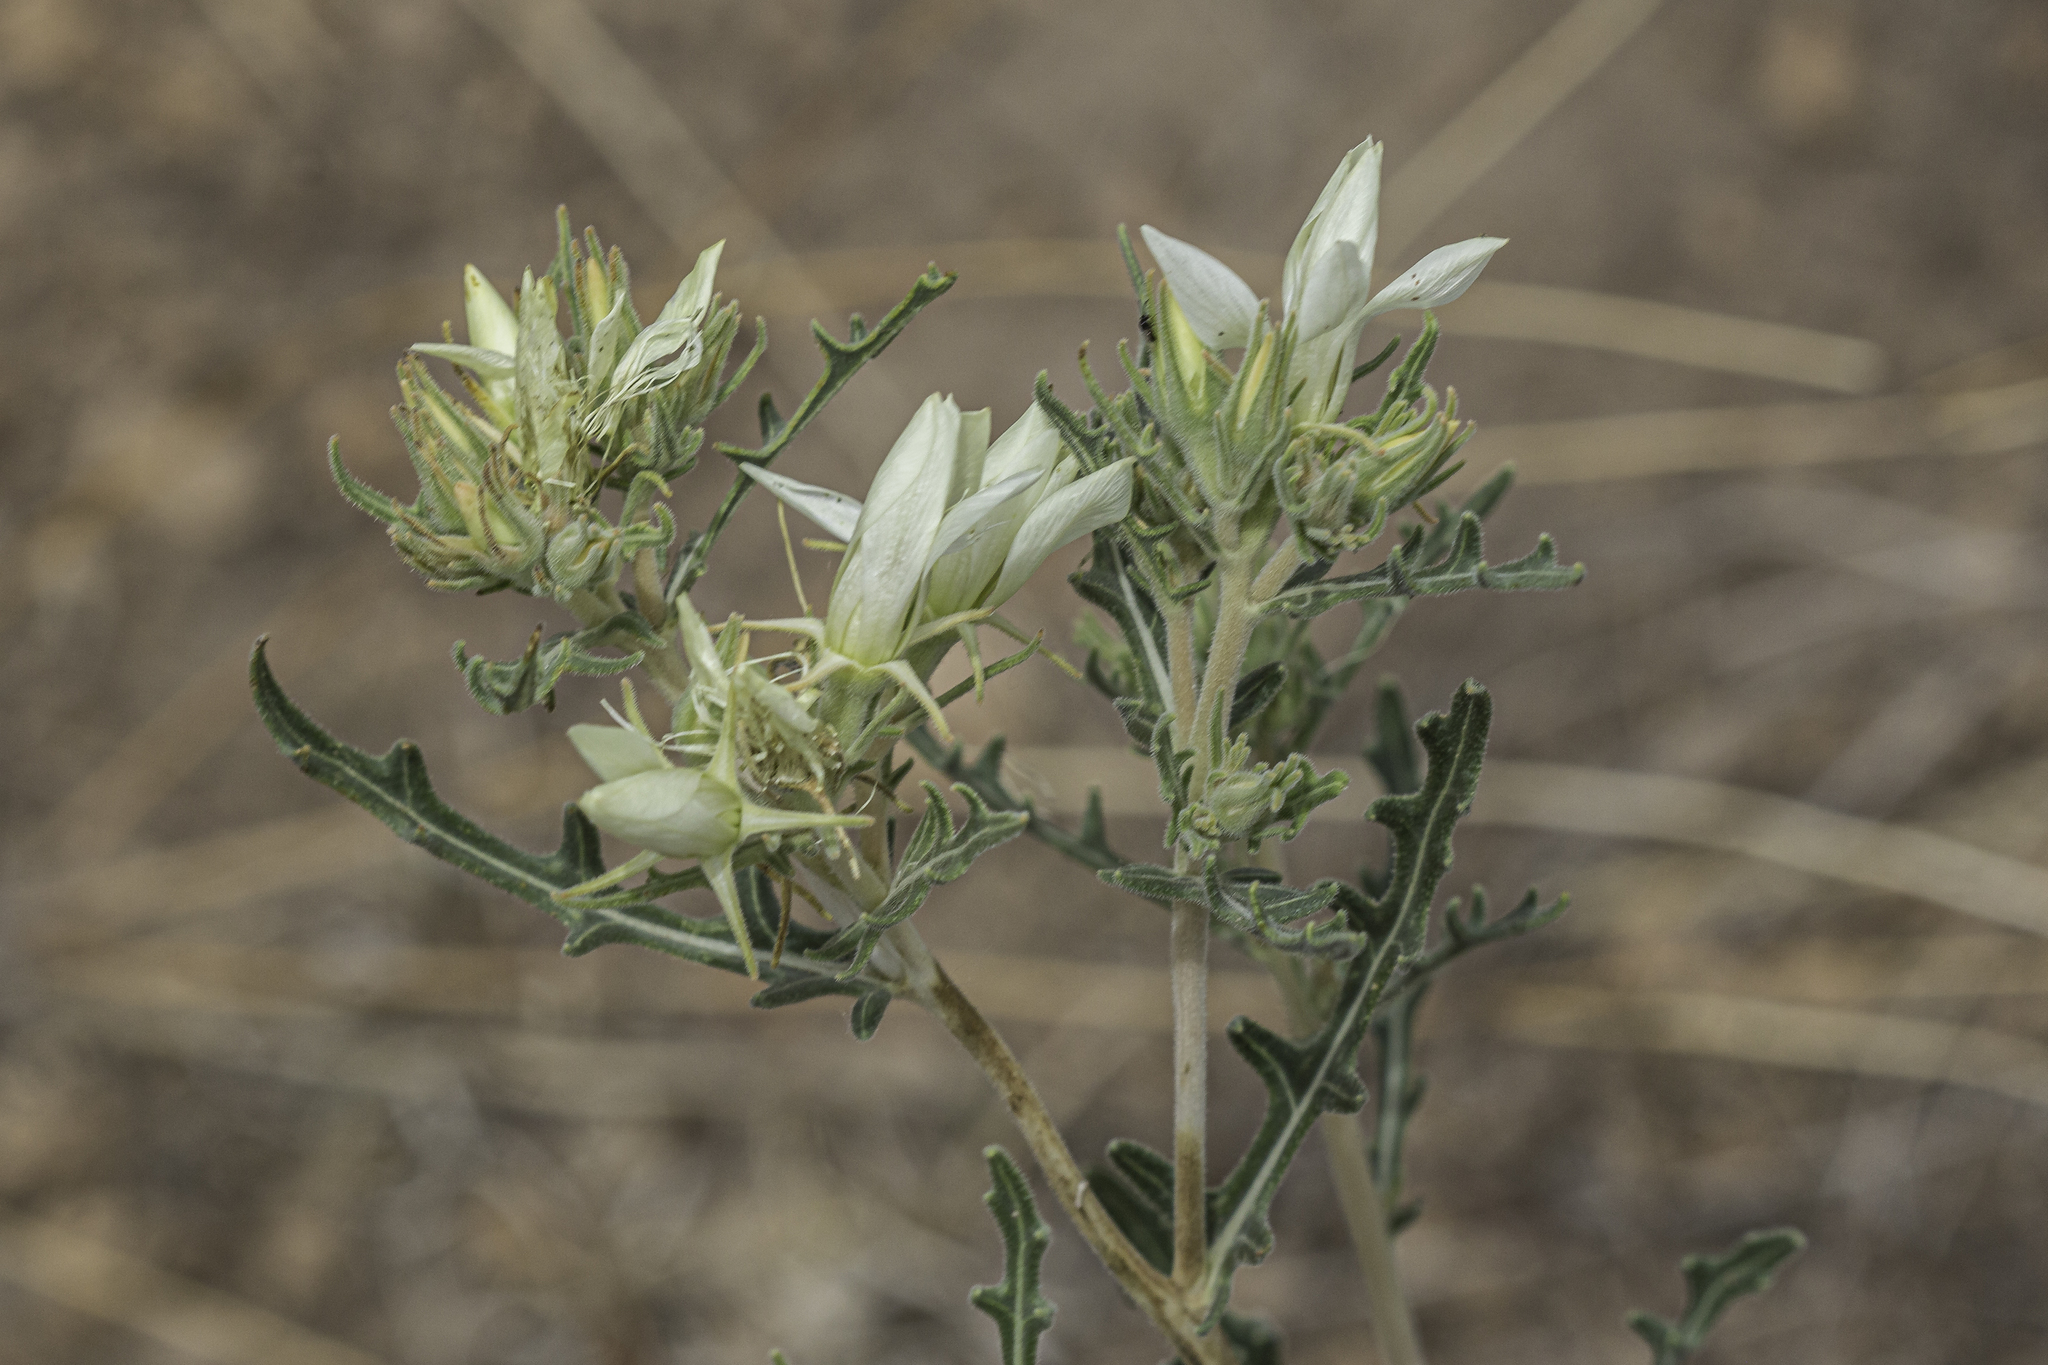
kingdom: Plantae
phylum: Tracheophyta
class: Magnoliopsida
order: Cornales
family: Loasaceae
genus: Mentzelia
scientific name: Mentzelia multiflora
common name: Adonis blazingstar
